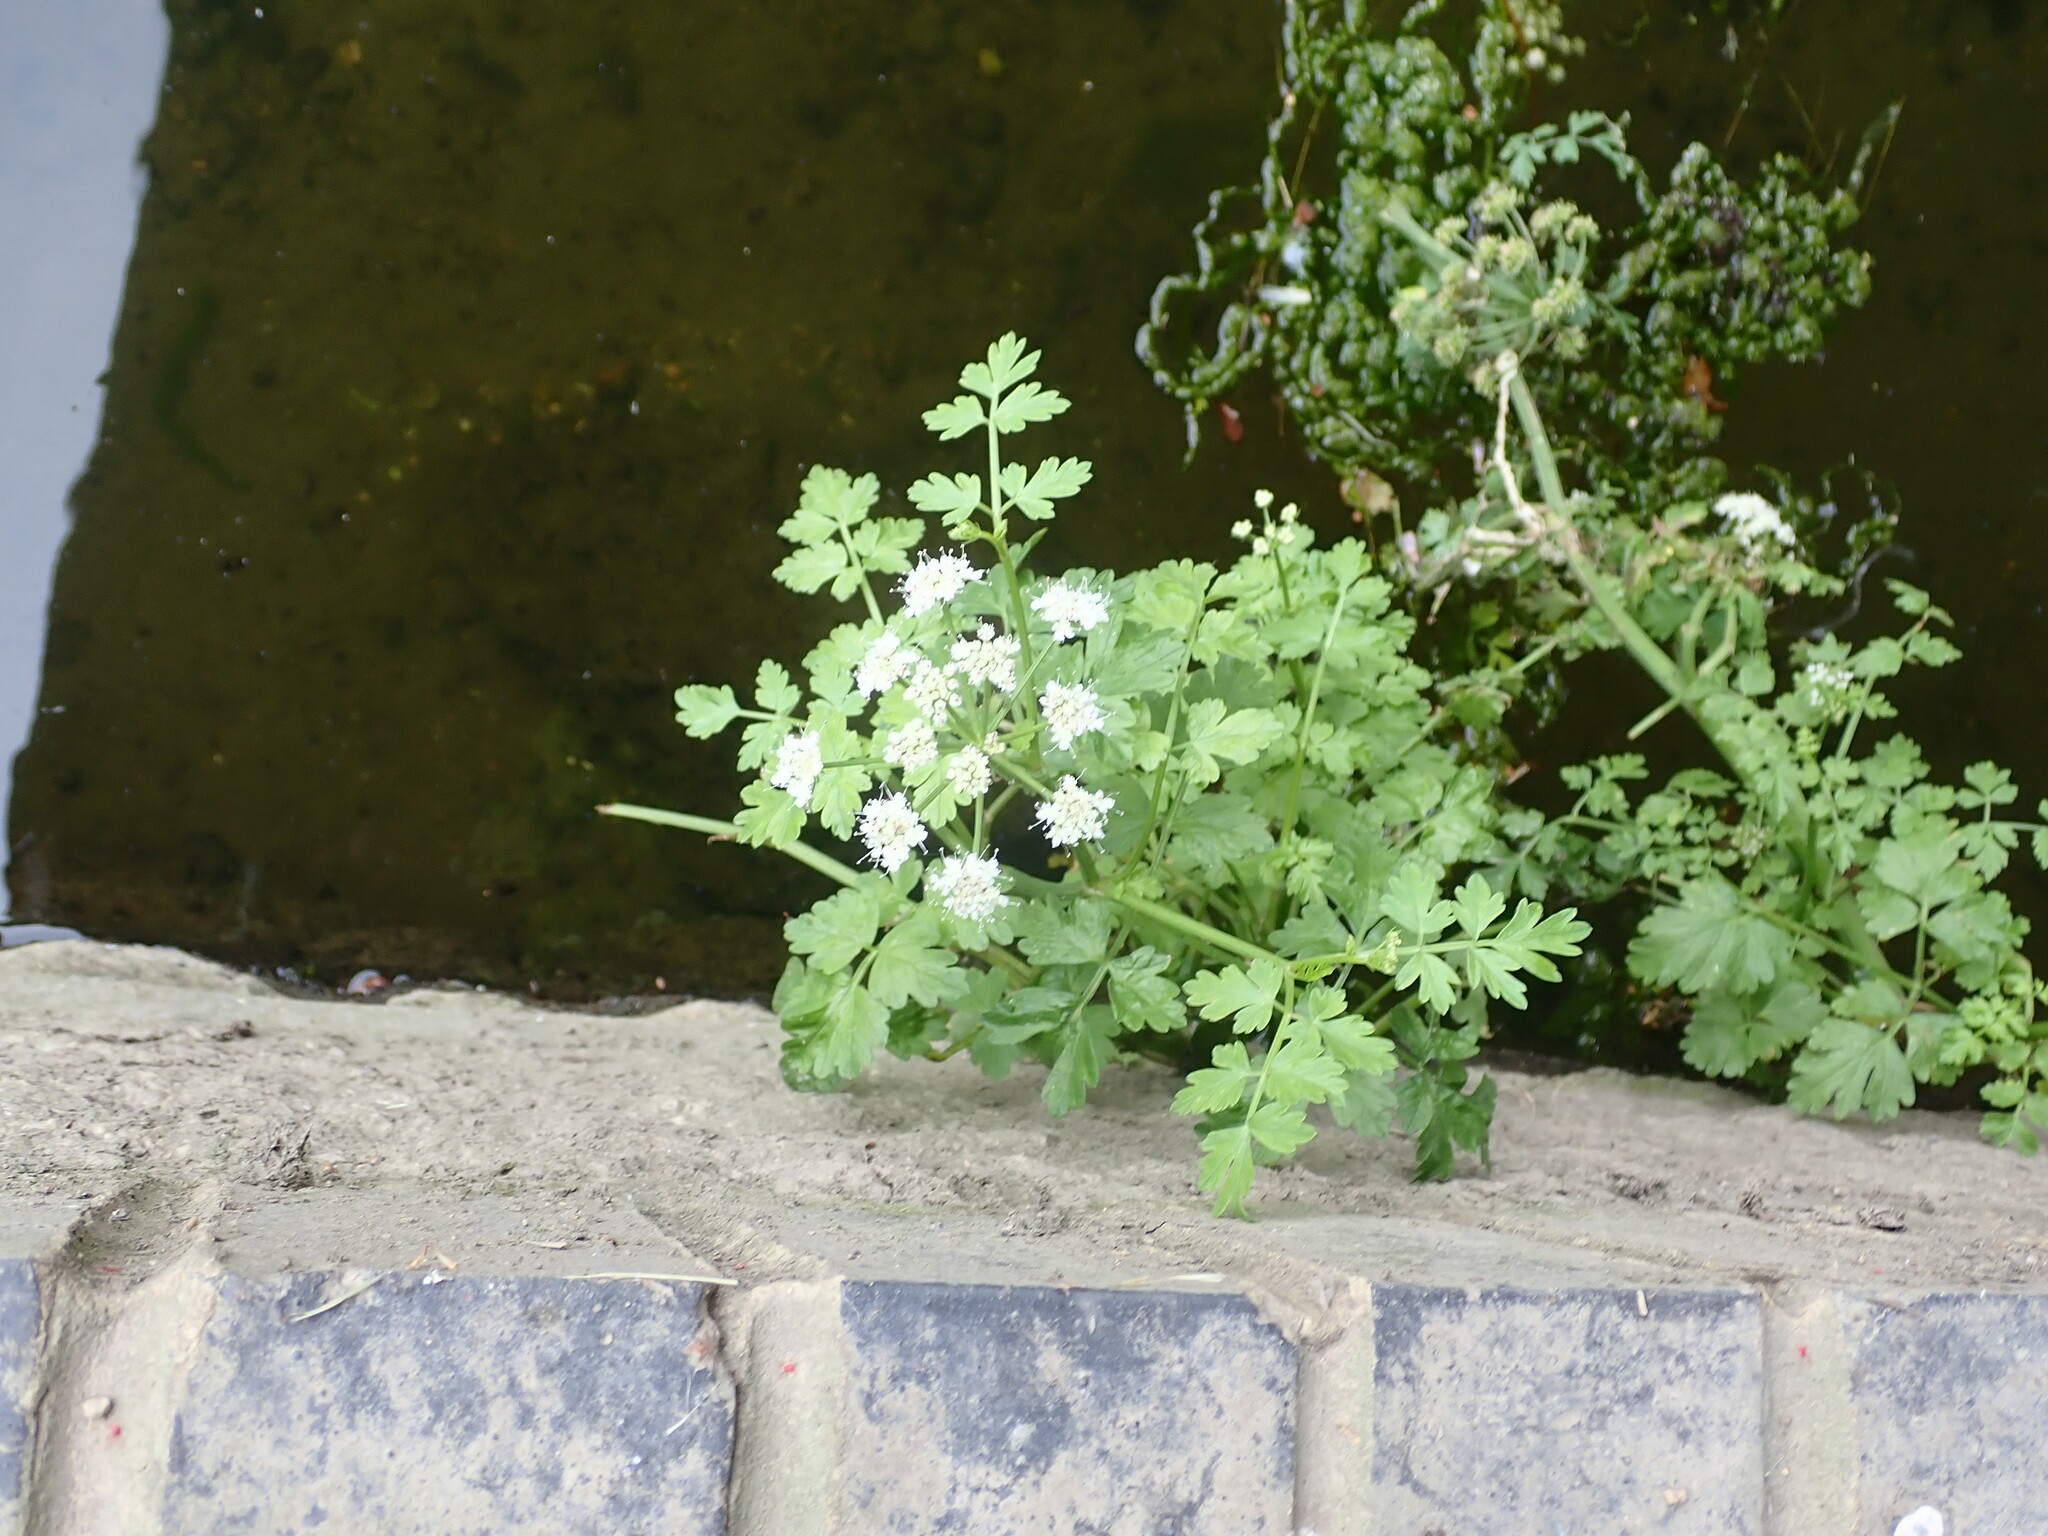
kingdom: Plantae
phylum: Tracheophyta
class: Magnoliopsida
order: Apiales
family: Apiaceae
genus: Oenanthe
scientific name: Oenanthe crocata
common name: Hemlock water-dropwort
